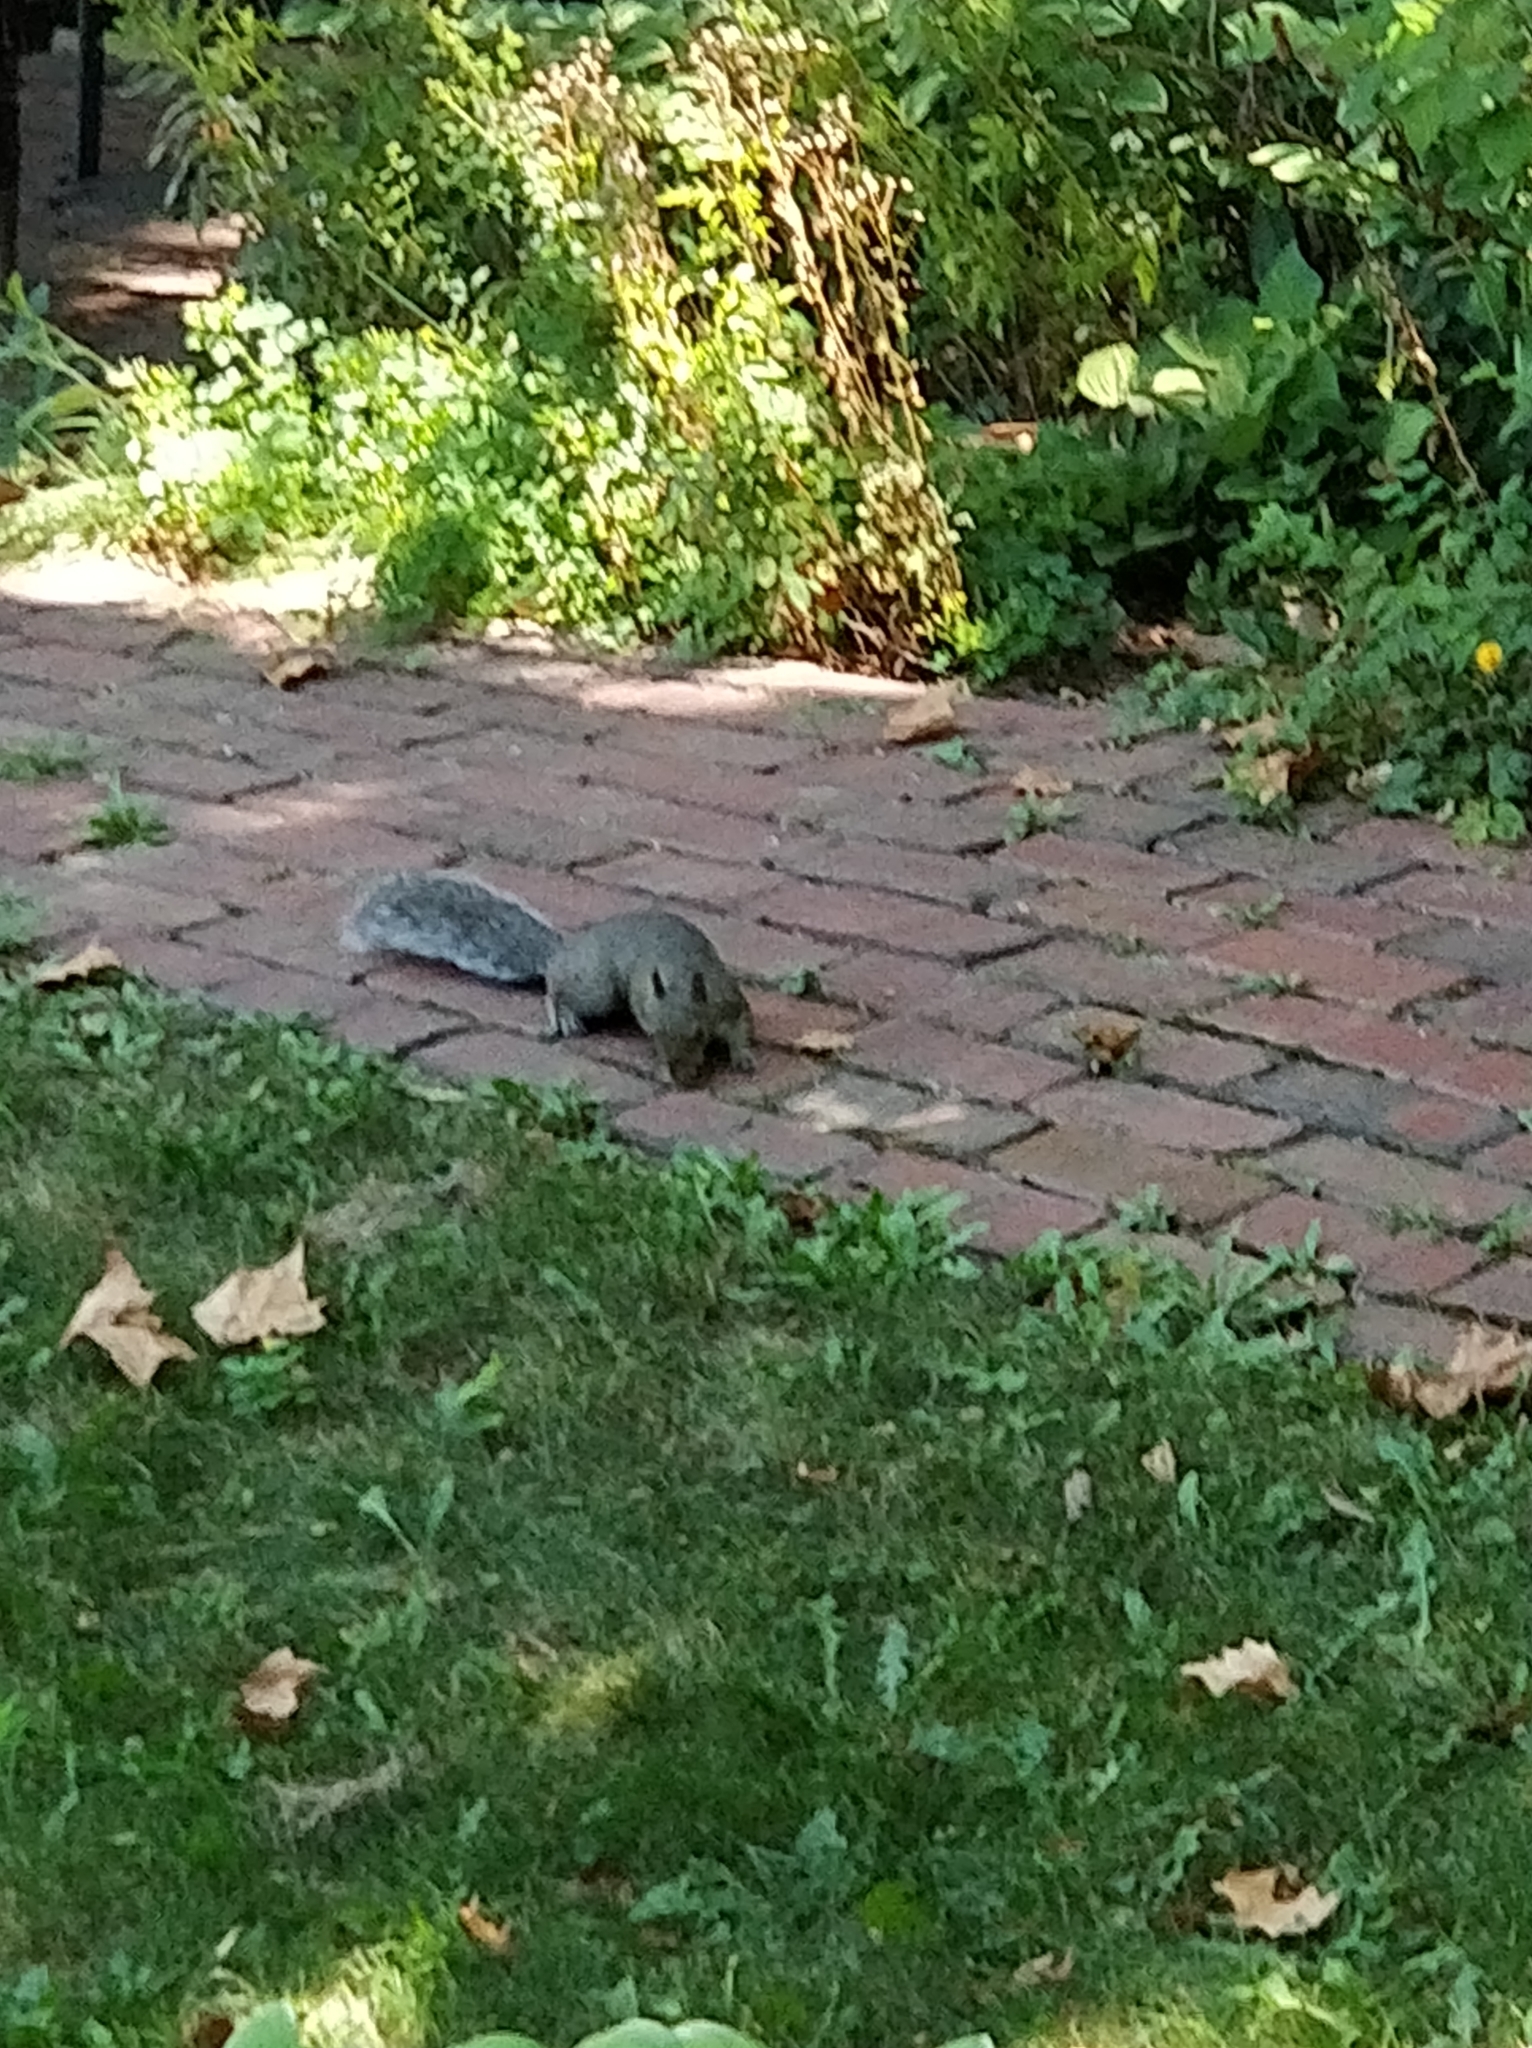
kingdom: Animalia
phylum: Chordata
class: Mammalia
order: Rodentia
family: Sciuridae
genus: Sciurus
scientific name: Sciurus carolinensis
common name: Eastern gray squirrel
